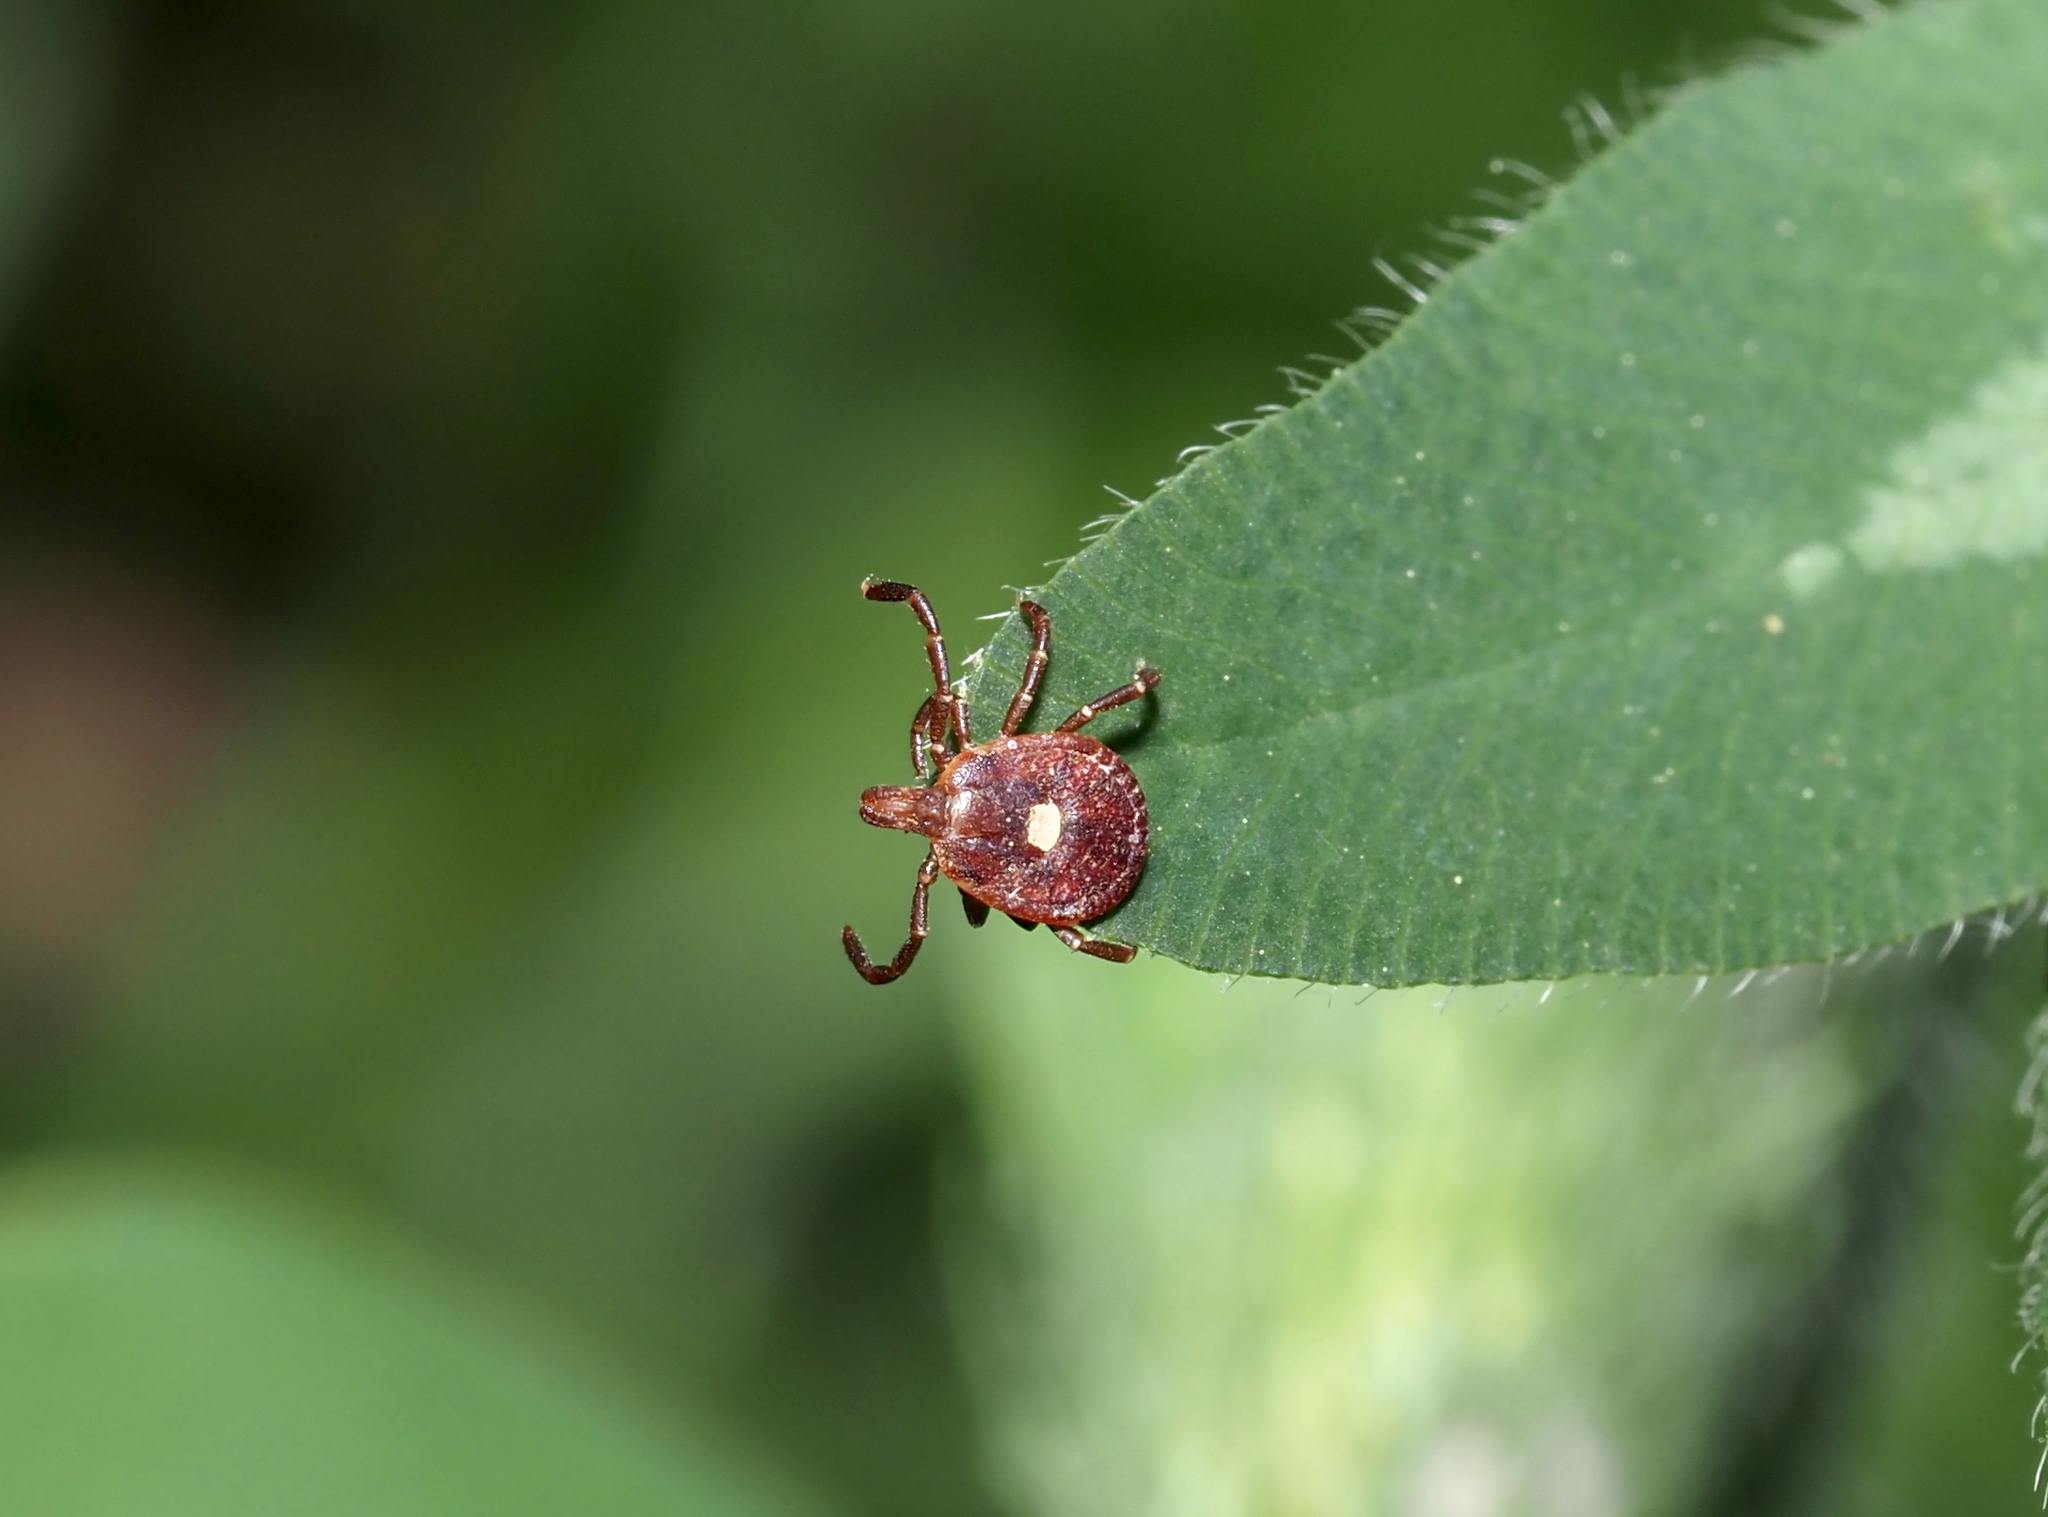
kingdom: Animalia
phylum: Arthropoda
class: Arachnida
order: Ixodida
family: Ixodidae
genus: Amblyomma
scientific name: Amblyomma americanum
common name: Lone star tick
